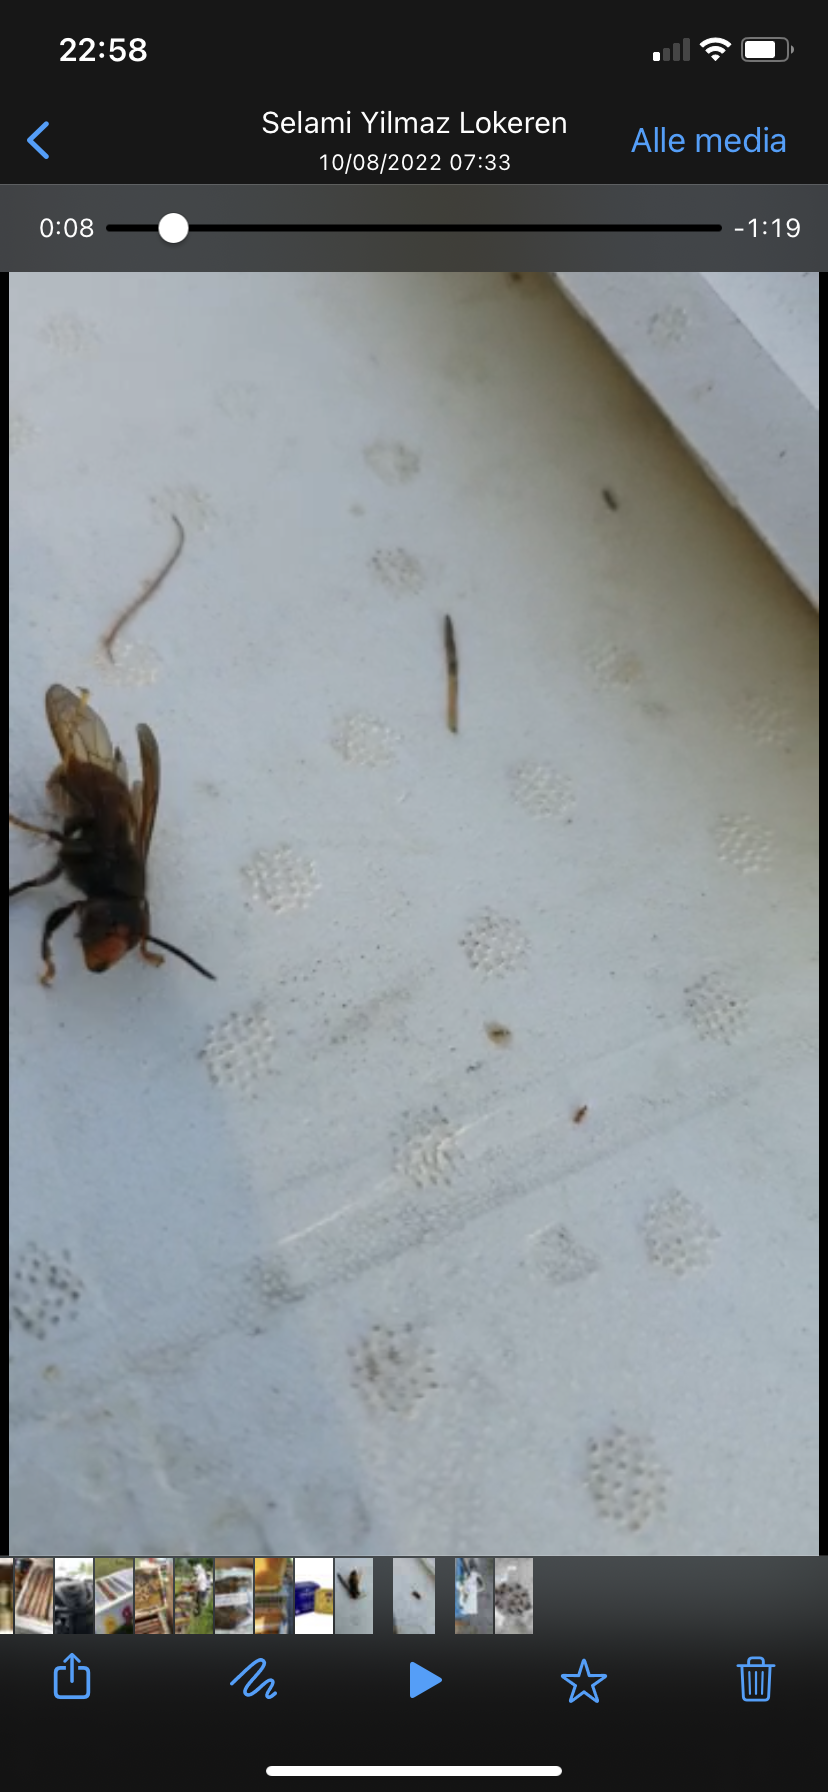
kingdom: Animalia
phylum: Arthropoda
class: Insecta
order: Hymenoptera
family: Vespidae
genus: Vespa
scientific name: Vespa velutina
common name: Asian hornet
